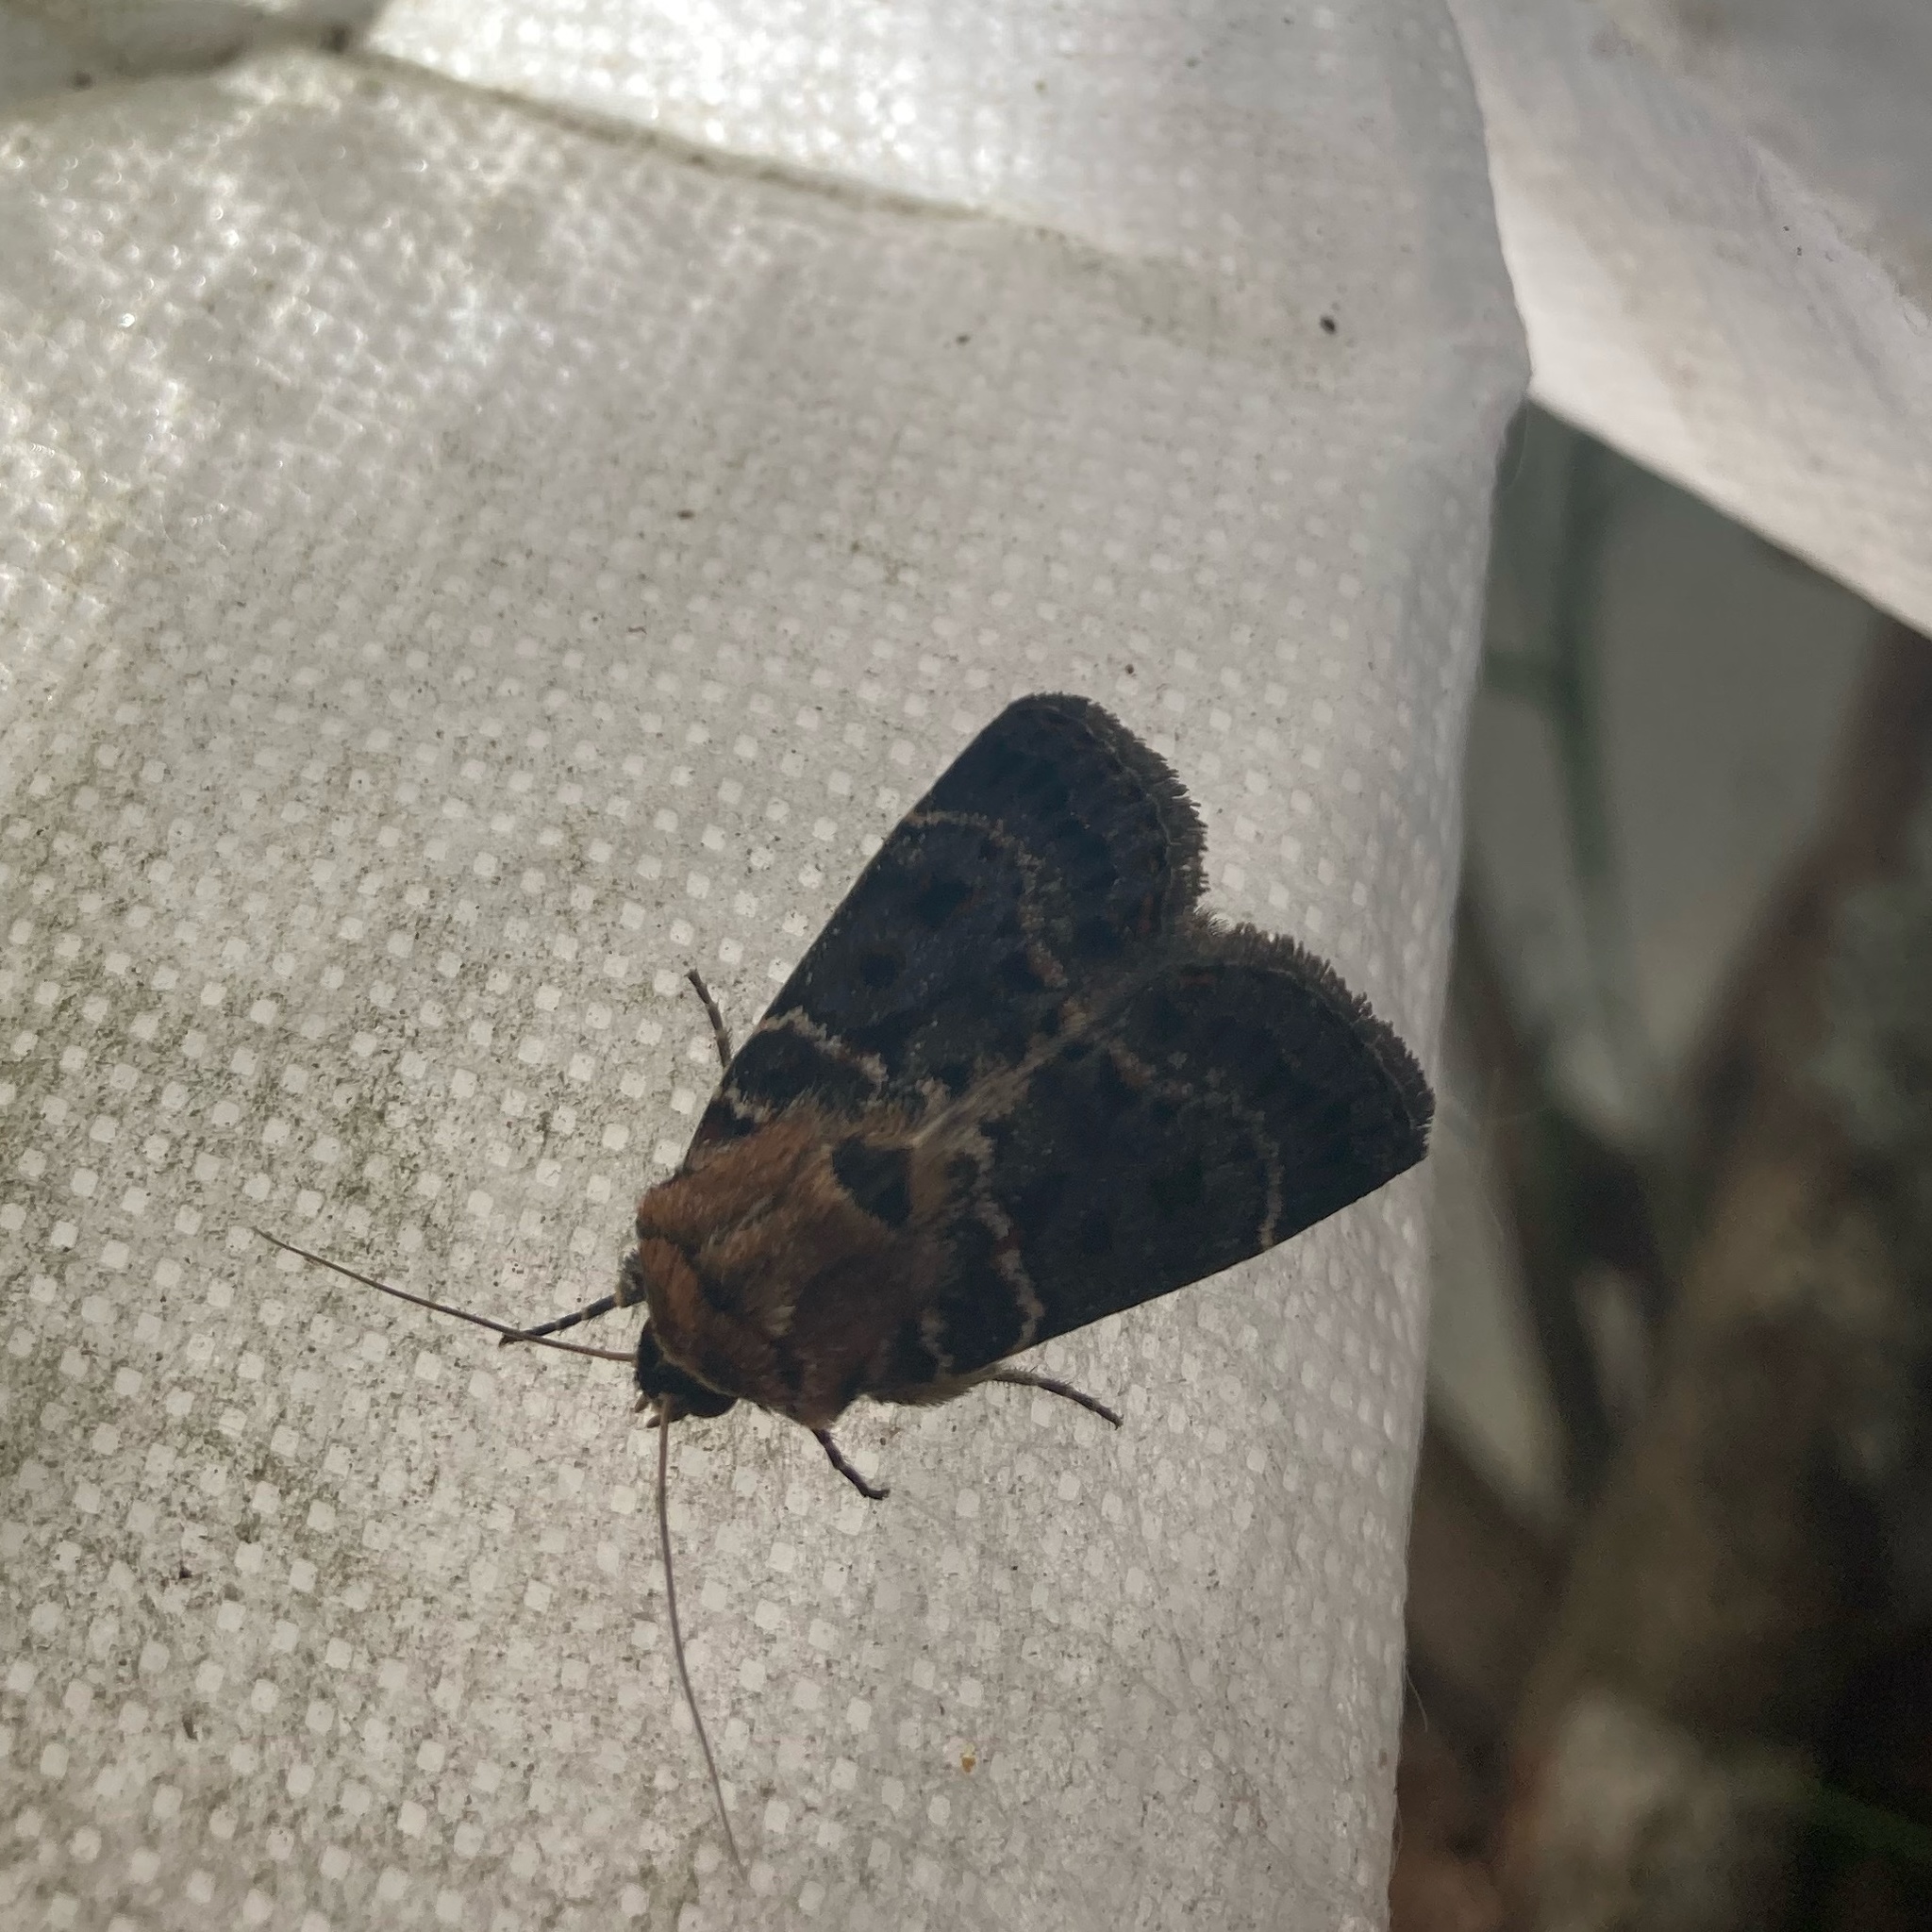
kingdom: Animalia
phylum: Arthropoda
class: Insecta
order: Lepidoptera
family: Noctuidae
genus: Proteuxoa
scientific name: Proteuxoa sanguinipuncta
